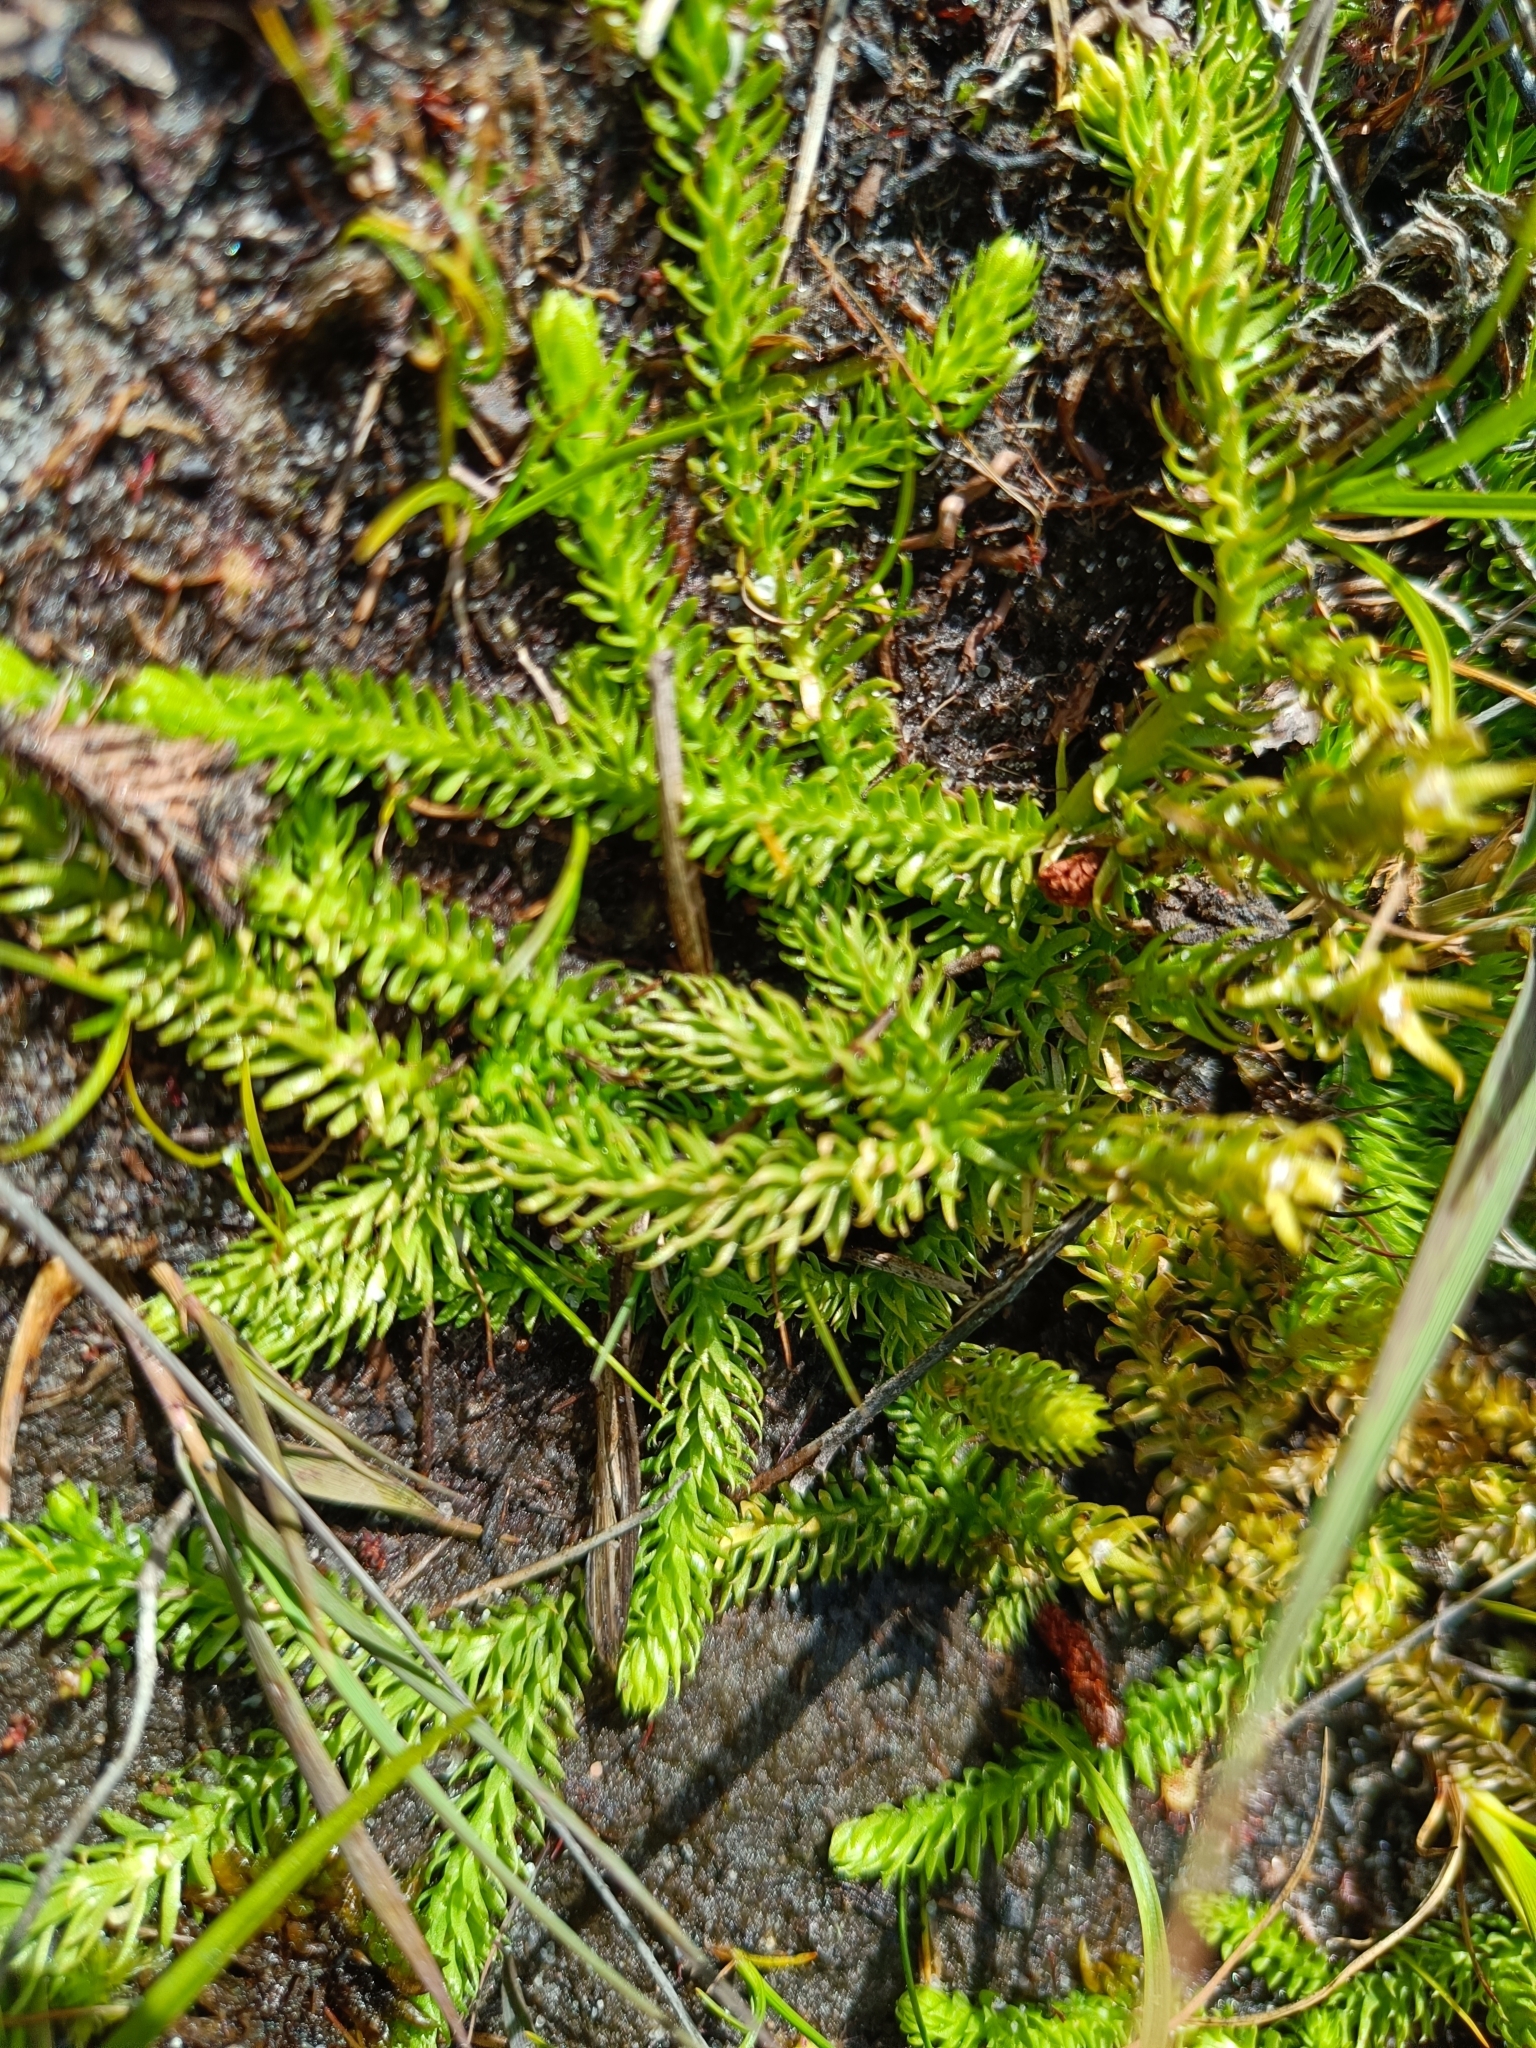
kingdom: Plantae
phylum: Tracheophyta
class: Lycopodiopsida
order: Lycopodiales
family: Lycopodiaceae
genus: Lycopodiella
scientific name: Lycopodiella inundata
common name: Marsh clubmoss
